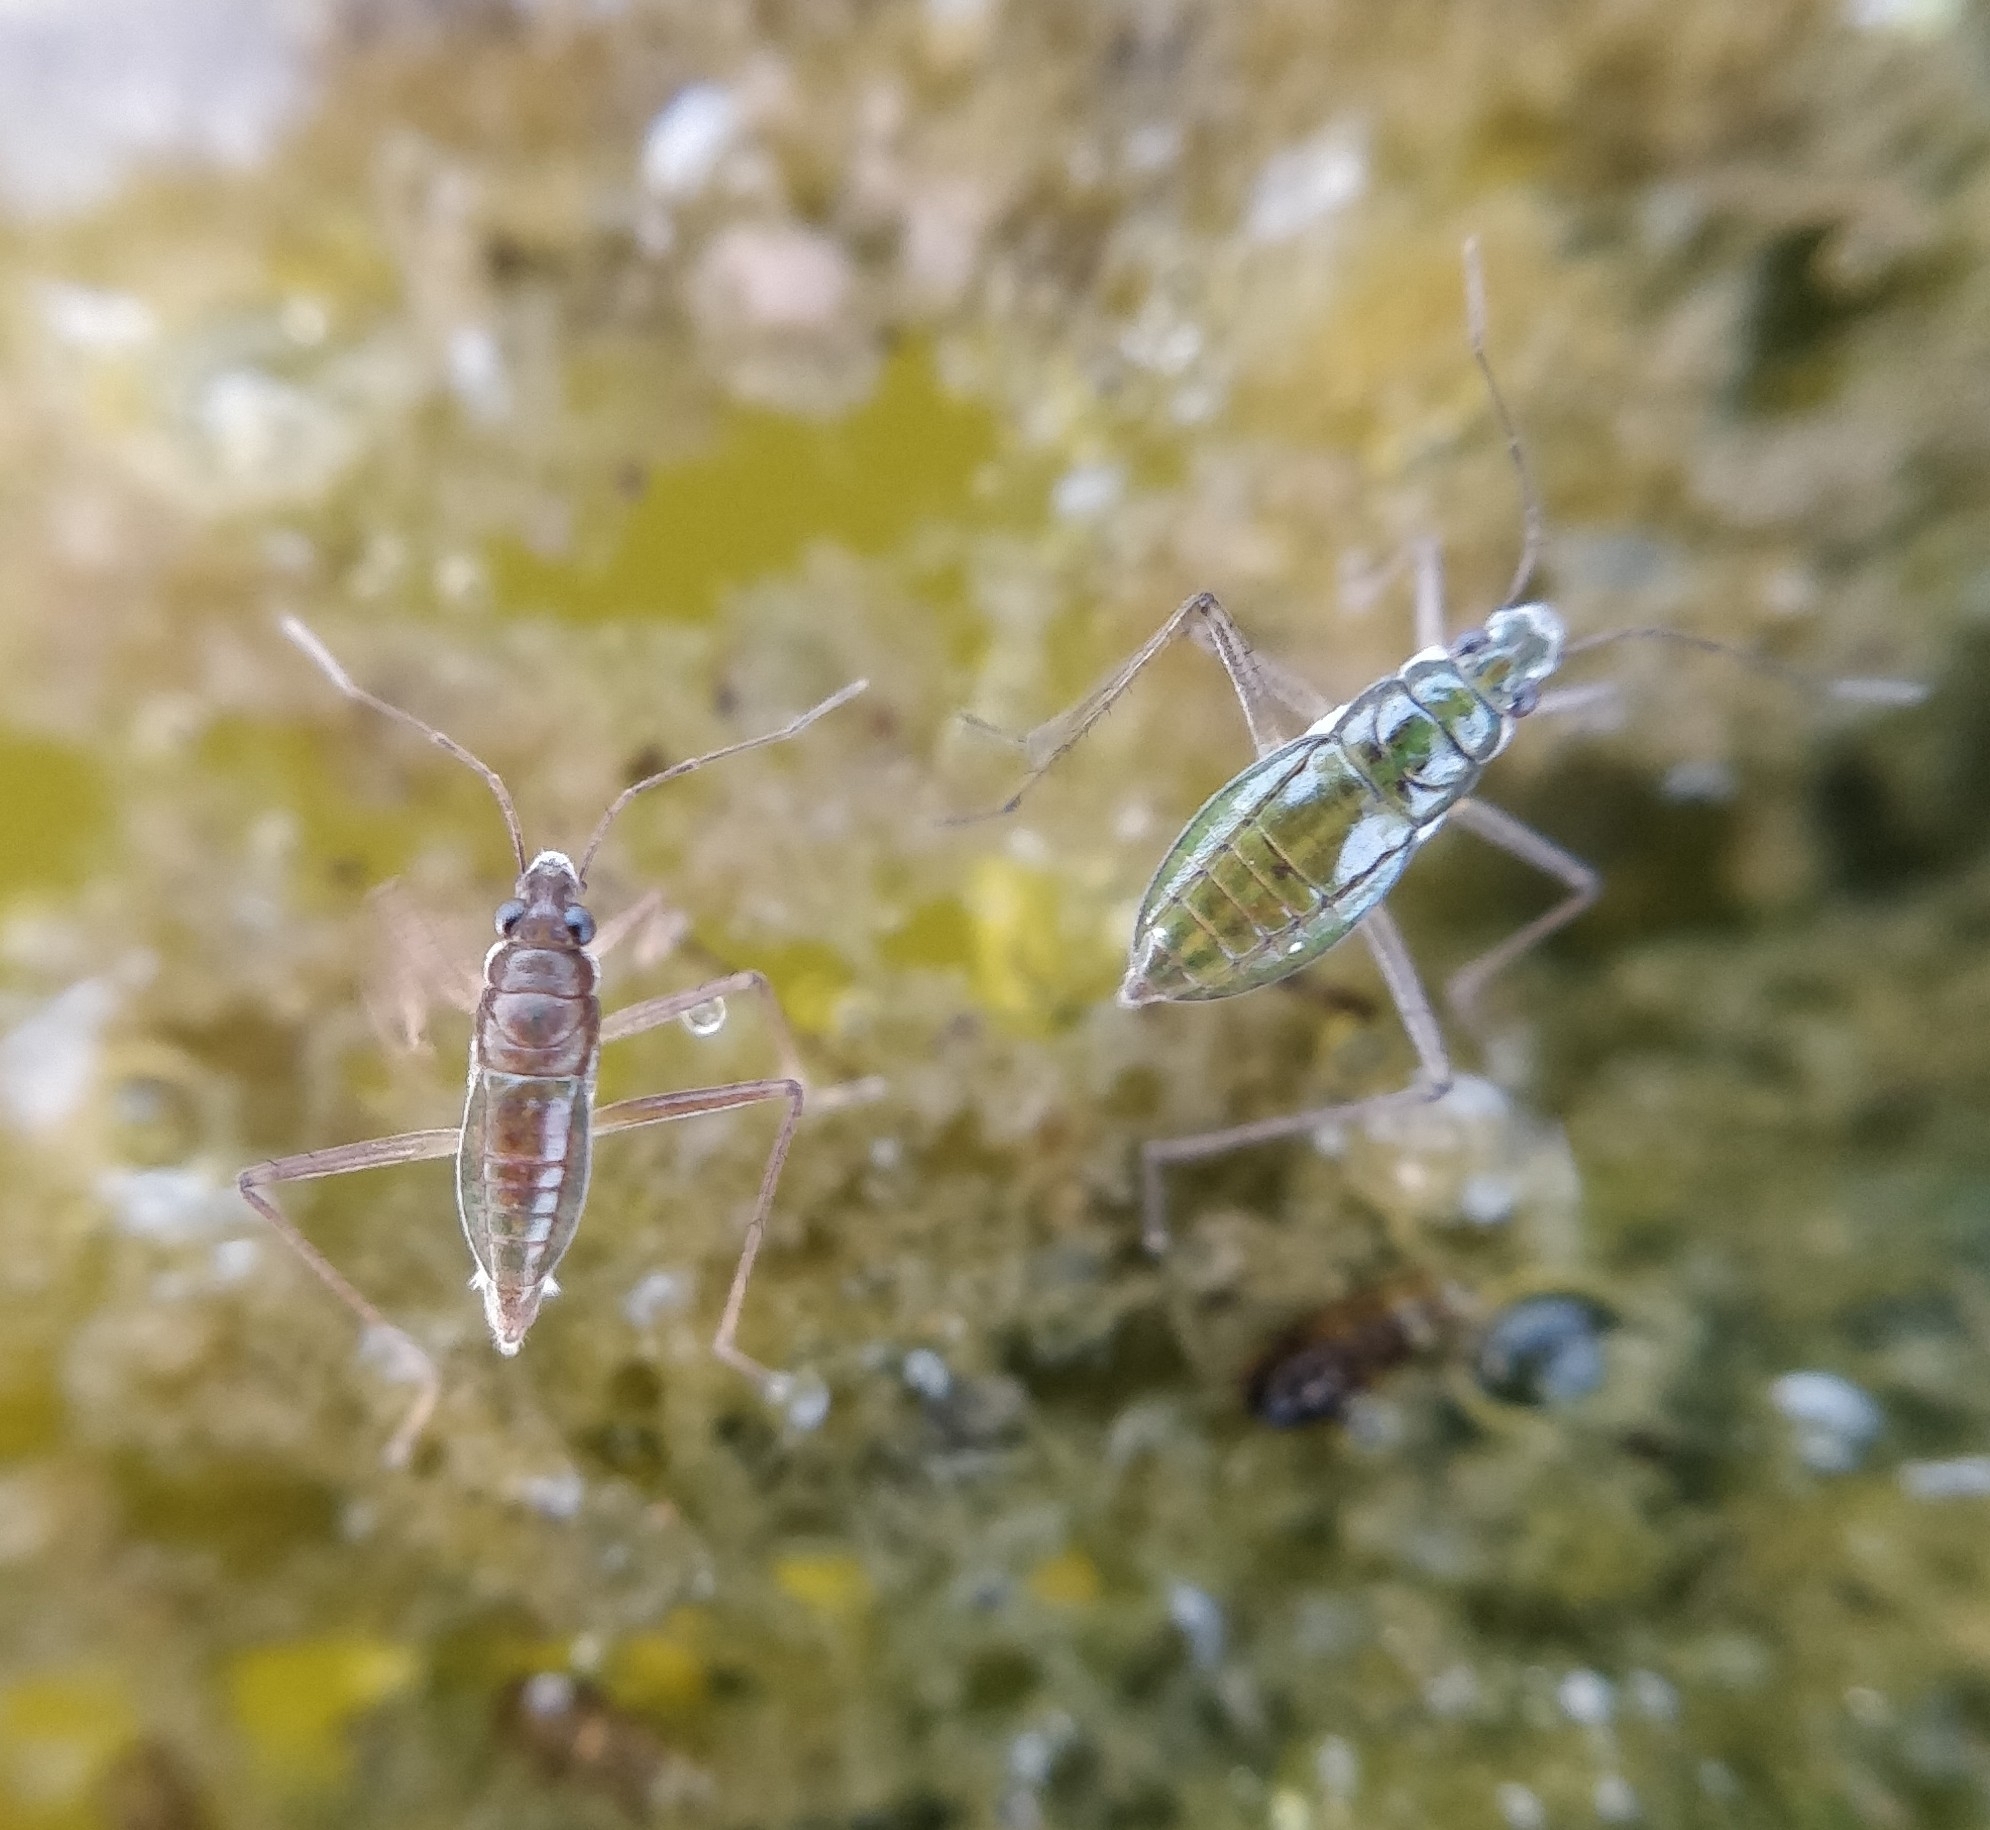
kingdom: Animalia
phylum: Arthropoda
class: Insecta
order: Hemiptera
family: Mesoveliidae
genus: Mesovelia
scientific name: Mesovelia vittigera
